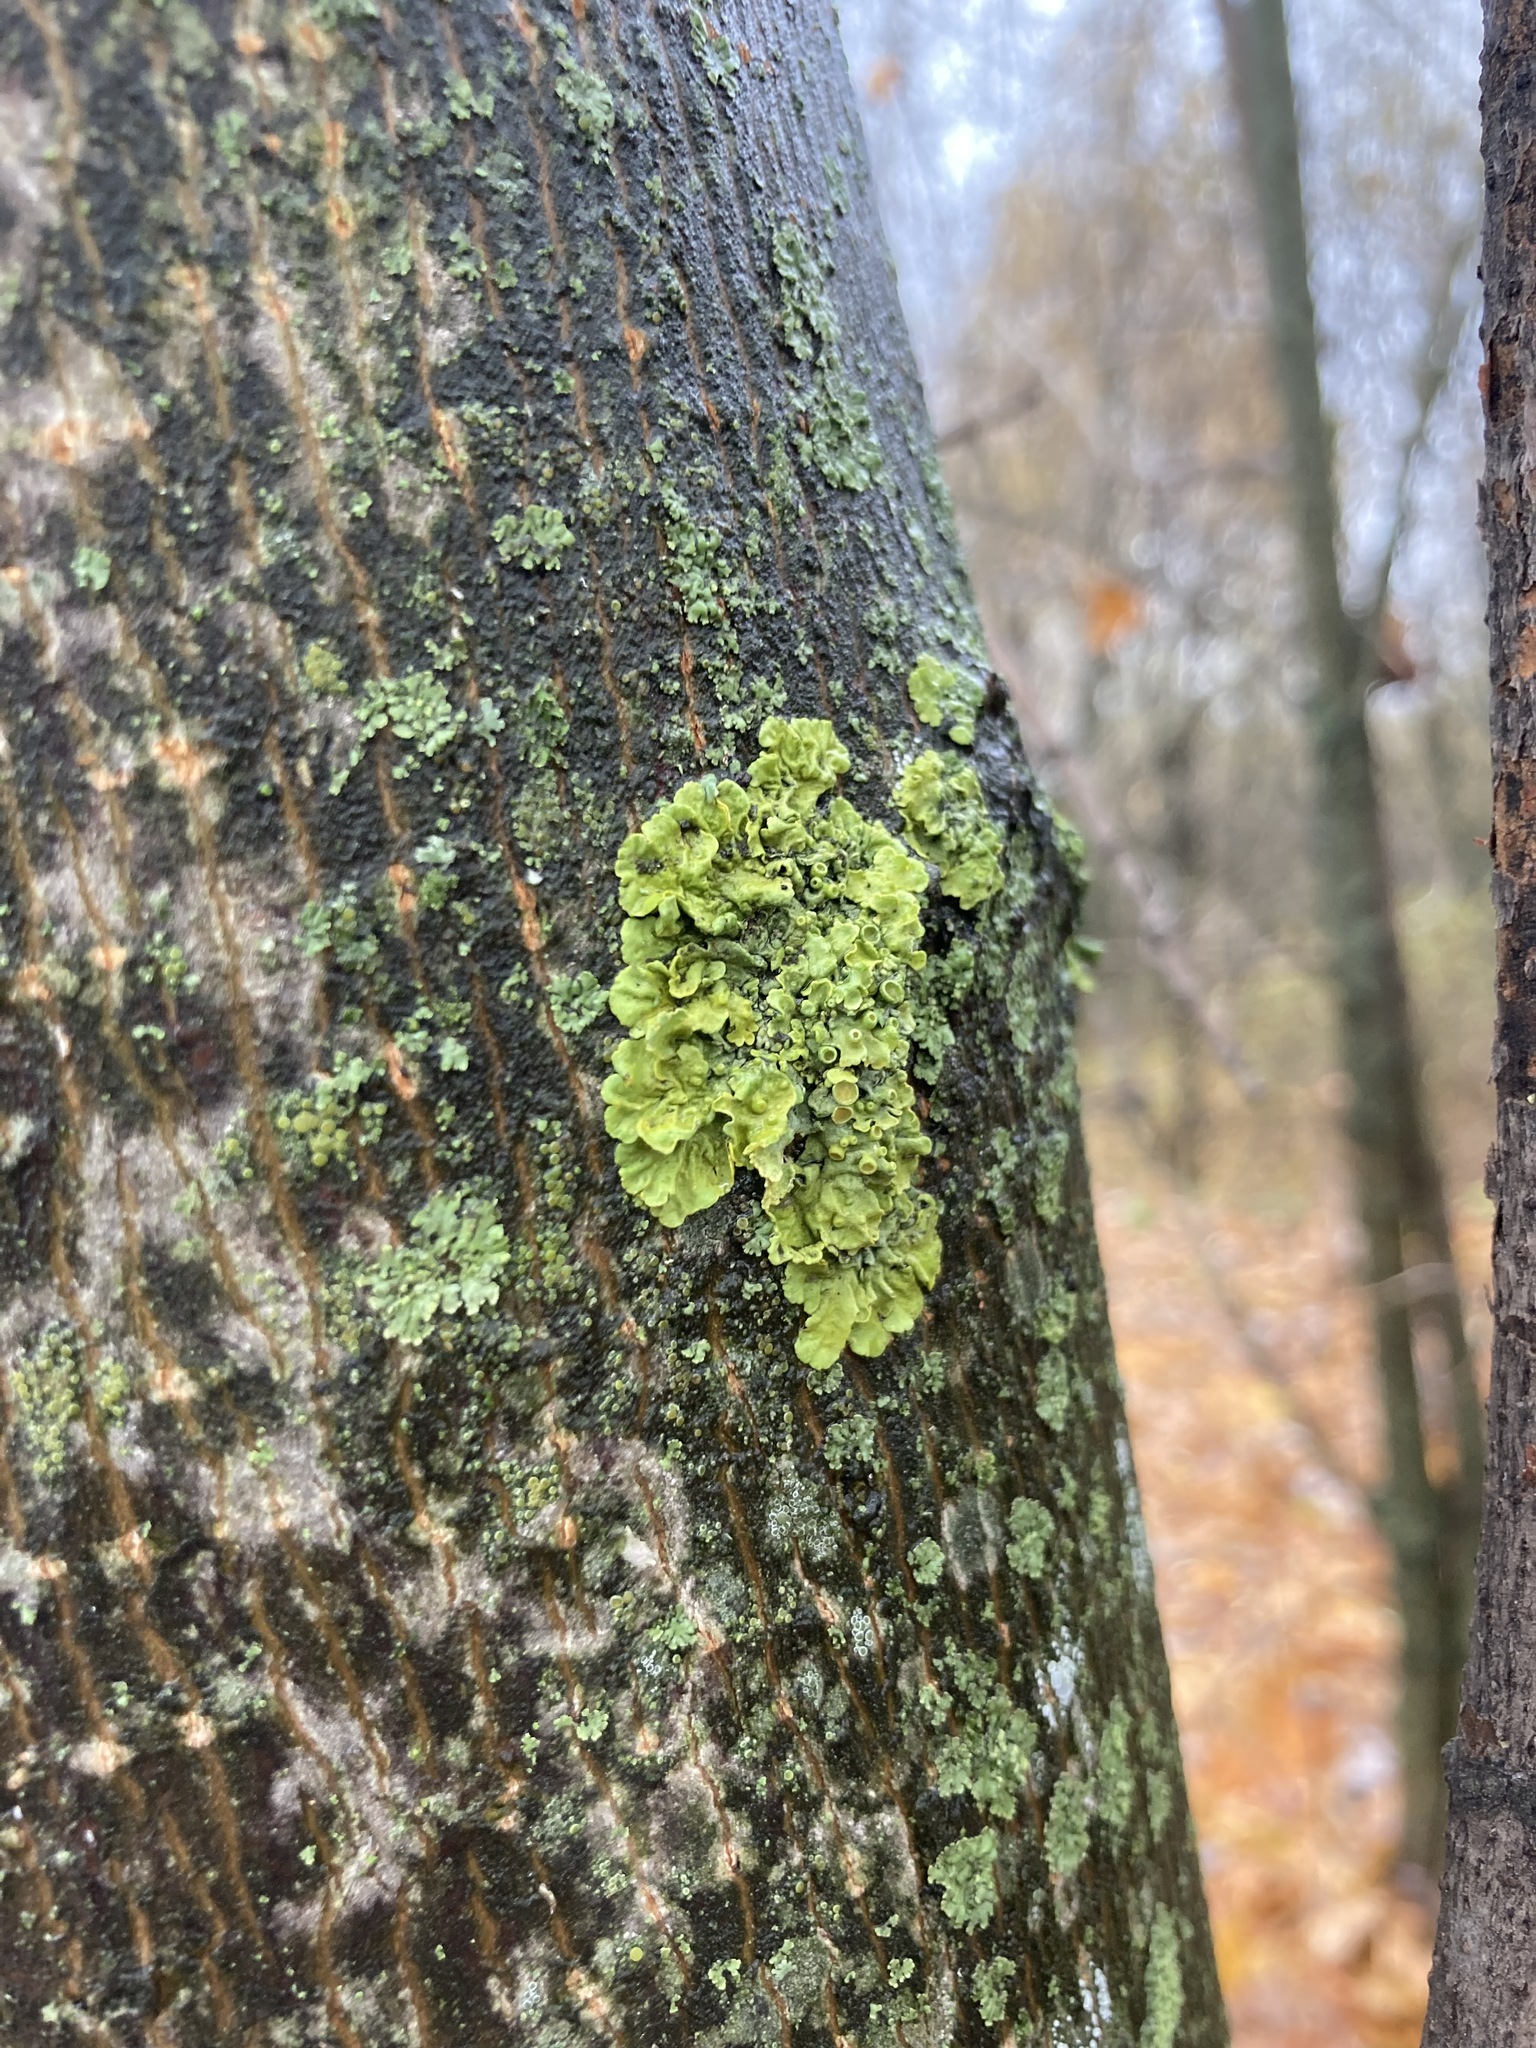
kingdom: Fungi
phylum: Ascomycota
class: Lecanoromycetes
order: Teloschistales
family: Teloschistaceae
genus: Xanthoria
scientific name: Xanthoria parietina
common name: Common orange lichen
